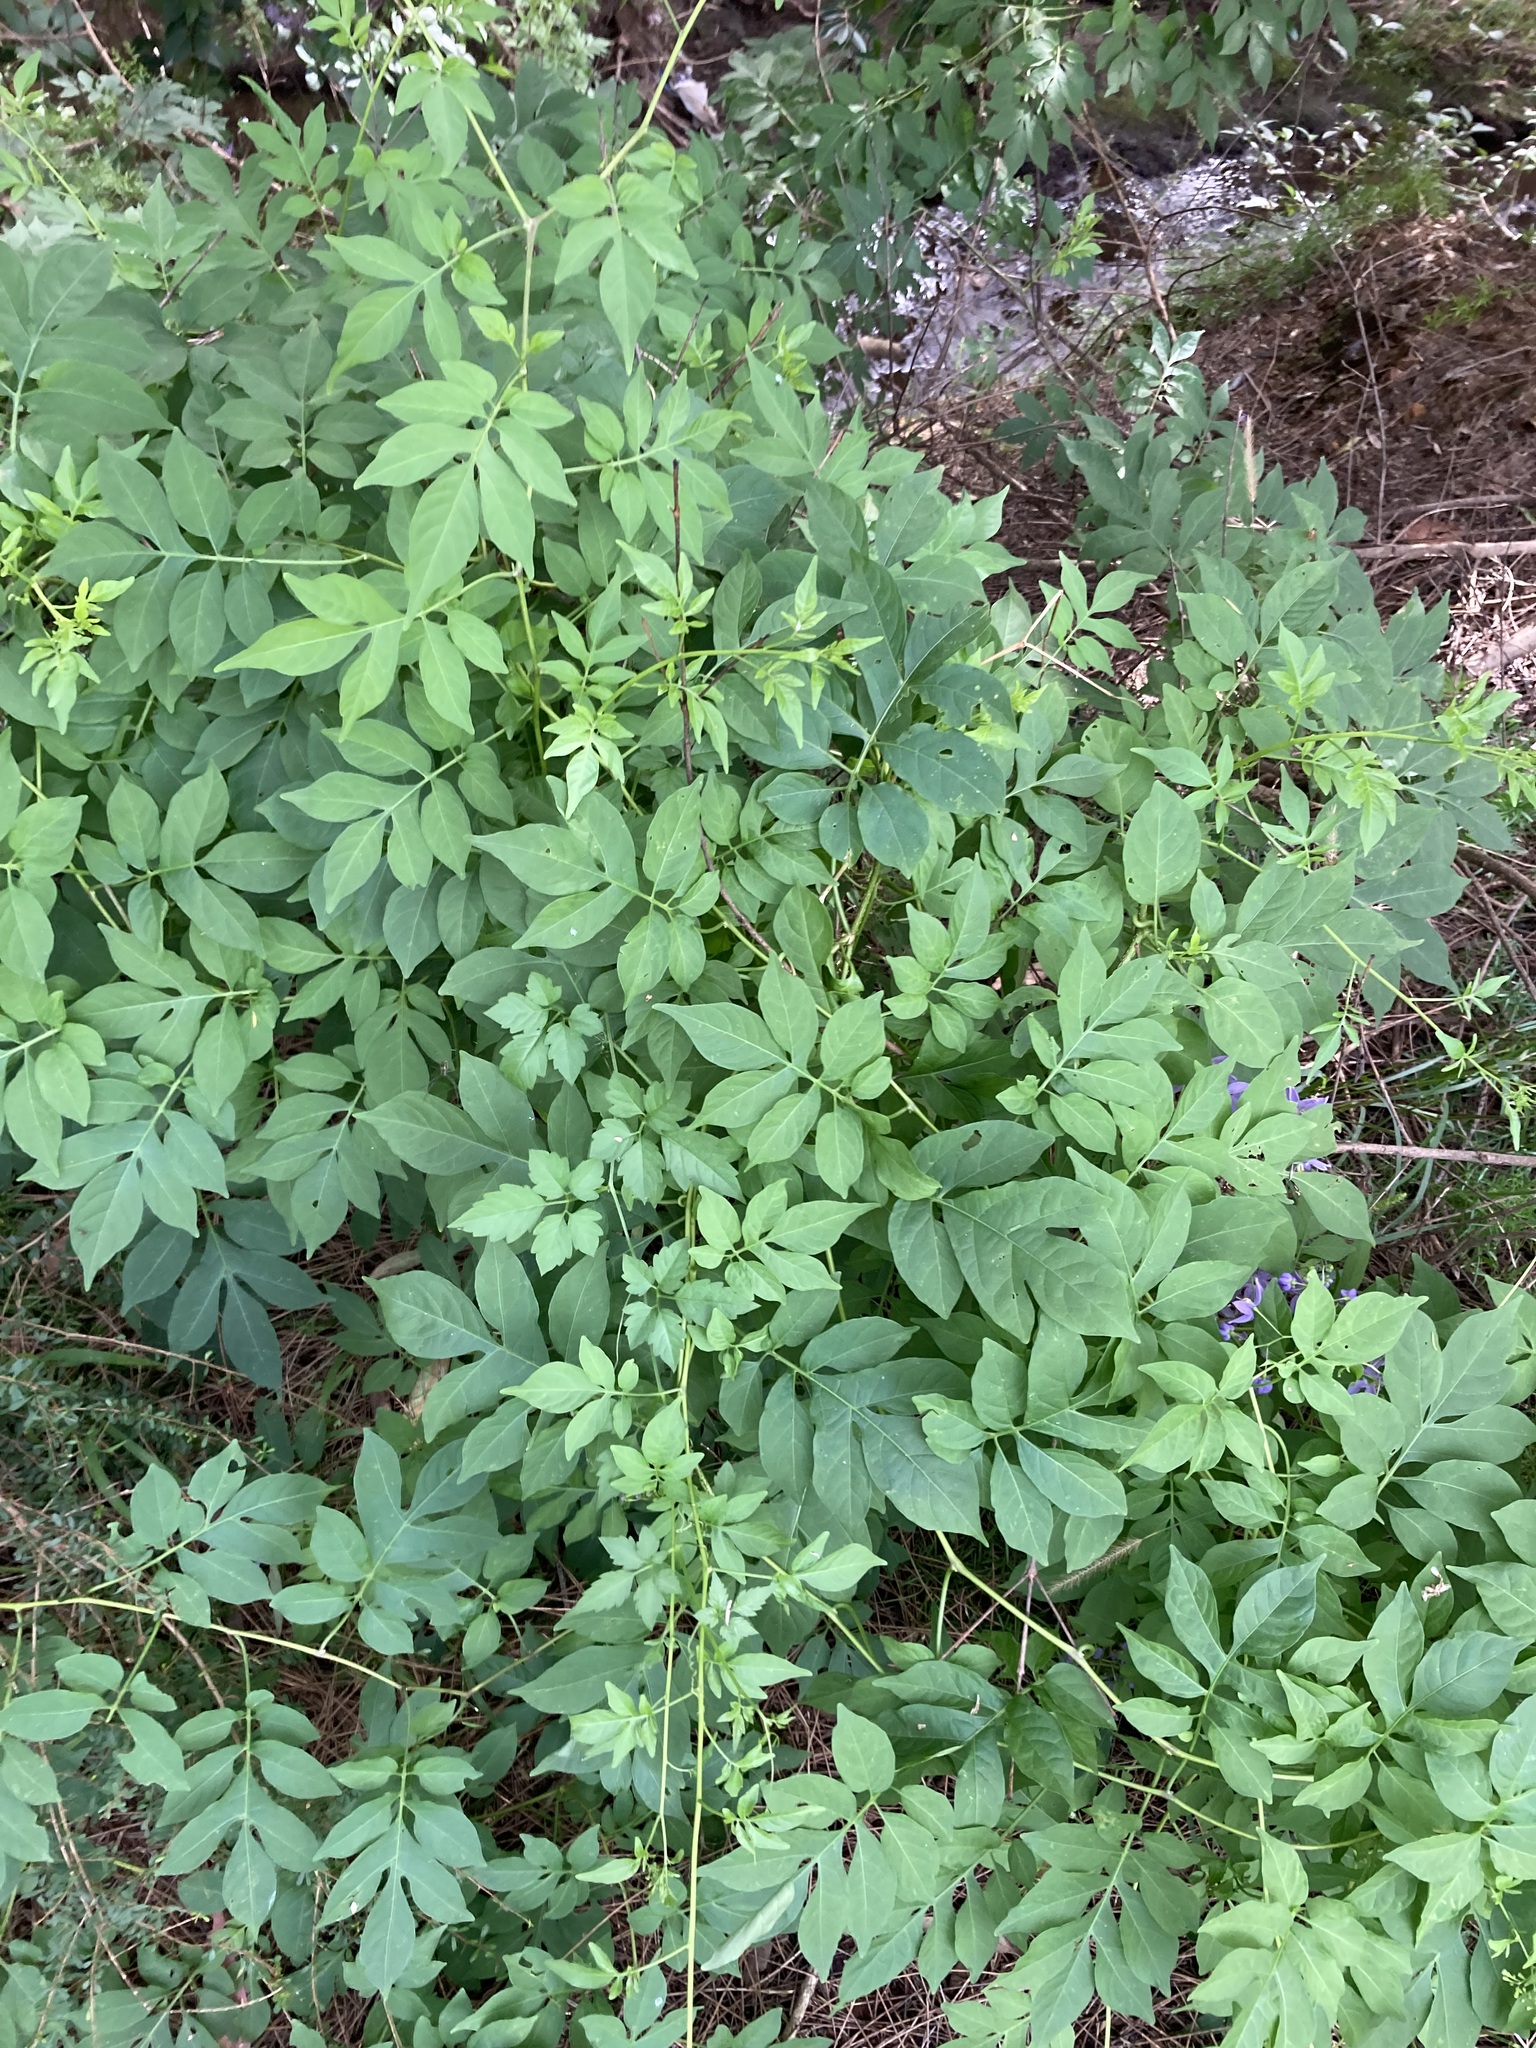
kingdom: Plantae
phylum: Tracheophyta
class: Magnoliopsida
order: Solanales
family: Solanaceae
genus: Solanum
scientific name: Solanum seaforthianum
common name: Brazilian nightshade
